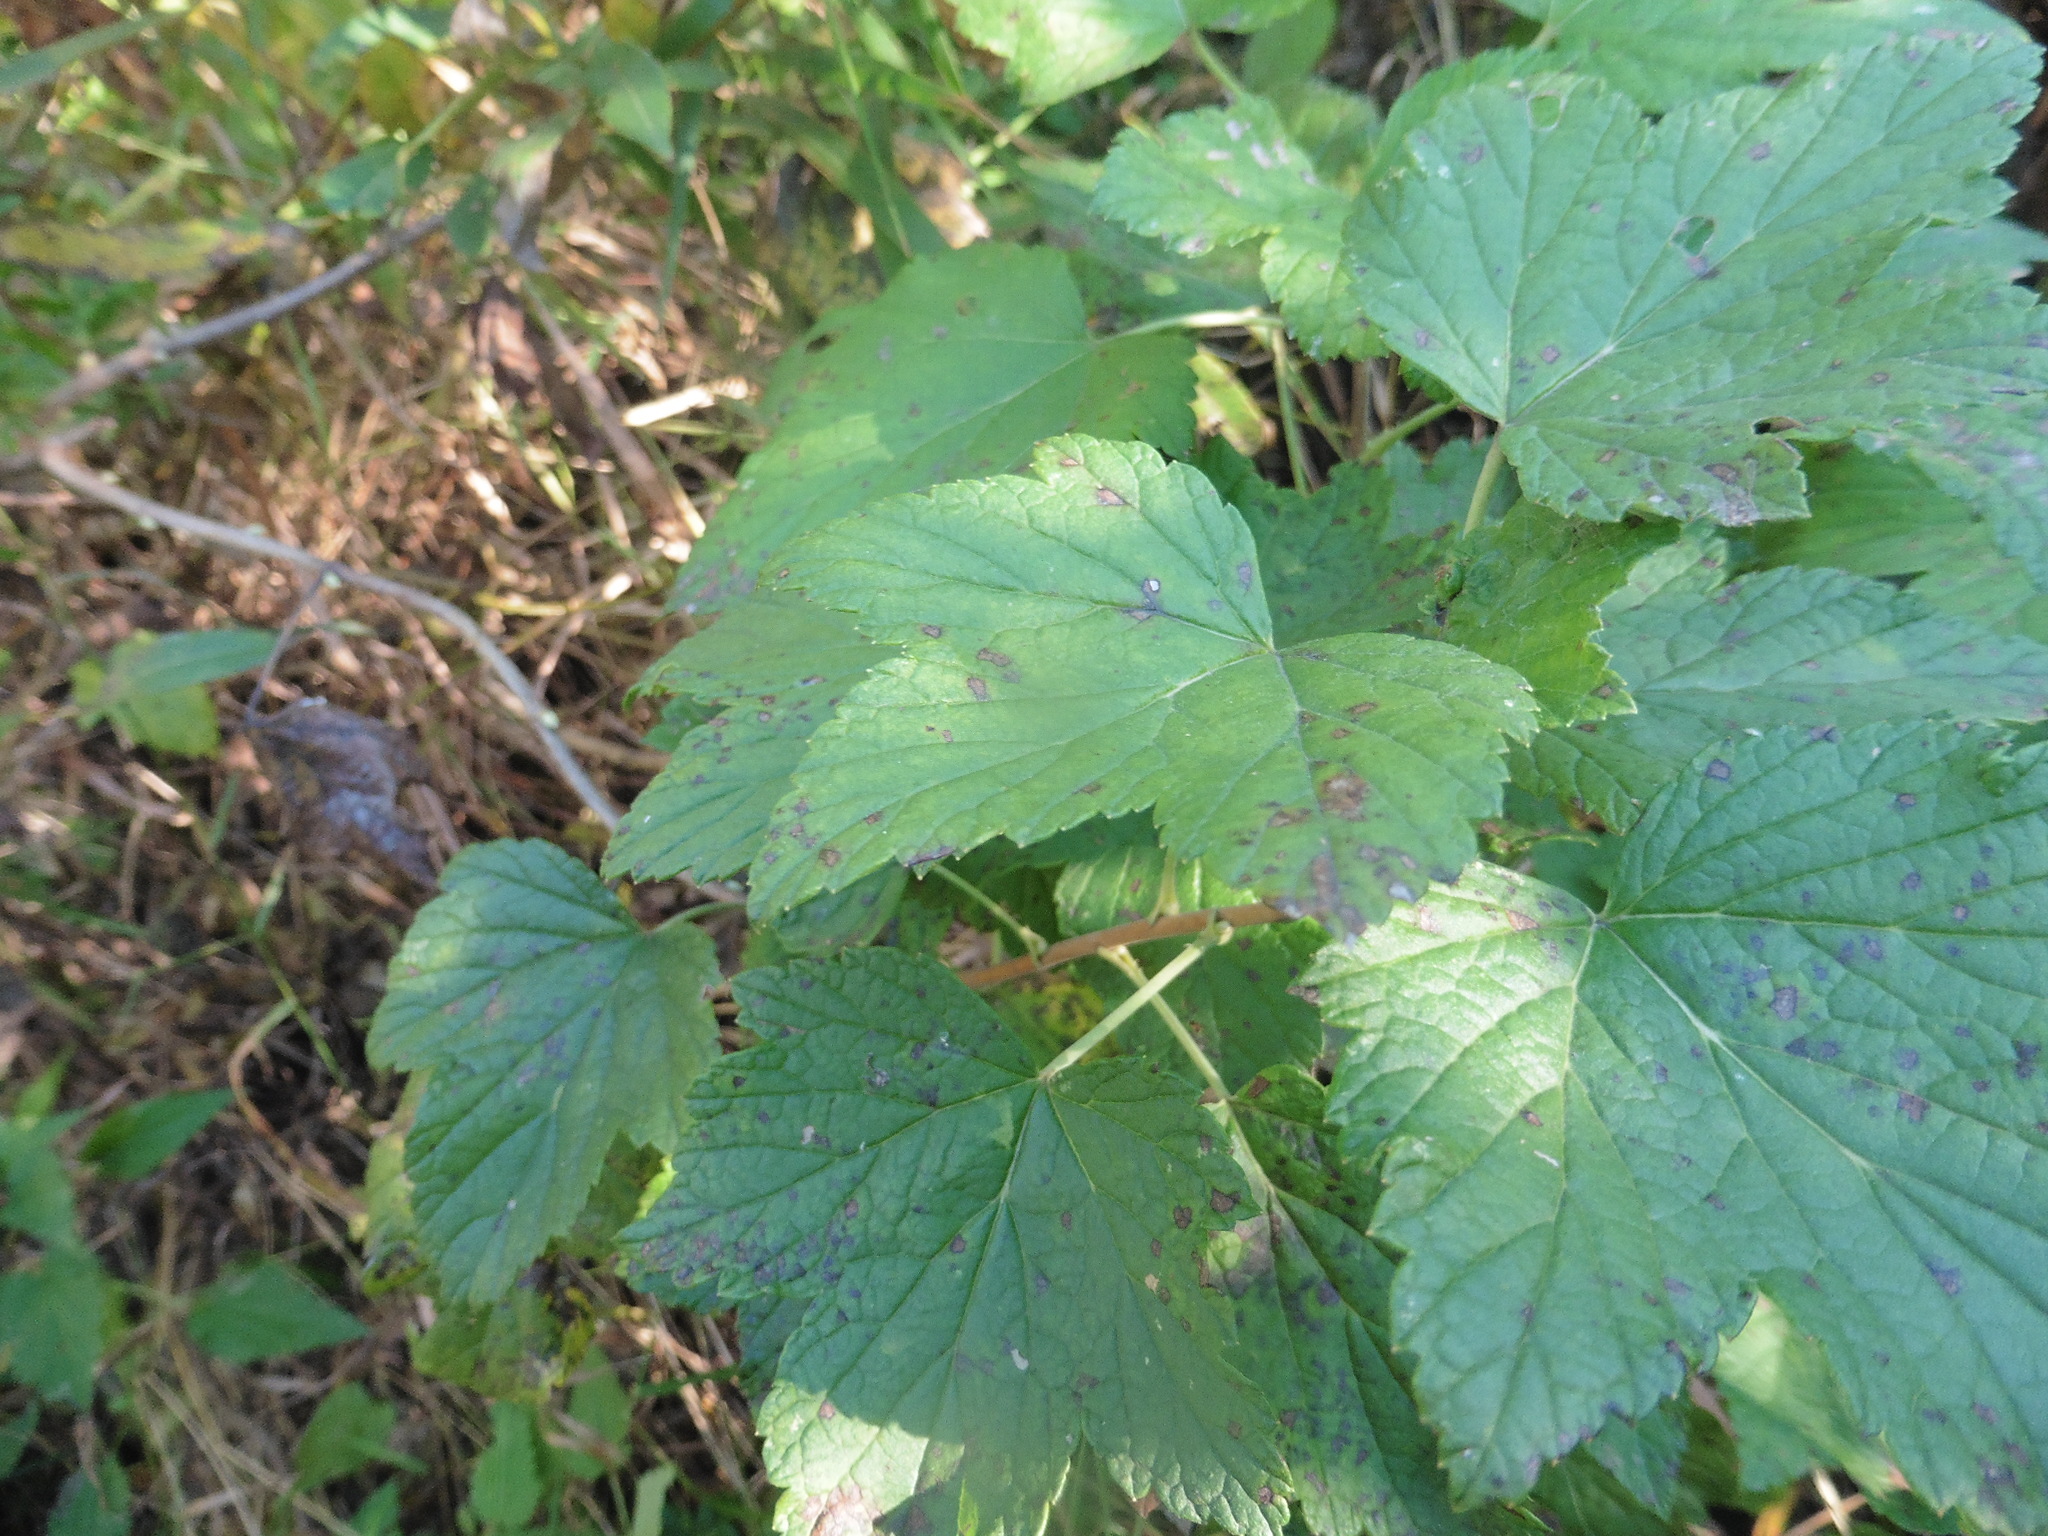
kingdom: Plantae
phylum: Tracheophyta
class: Magnoliopsida
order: Saxifragales
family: Grossulariaceae
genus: Ribes
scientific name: Ribes nigrum
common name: Black currant
